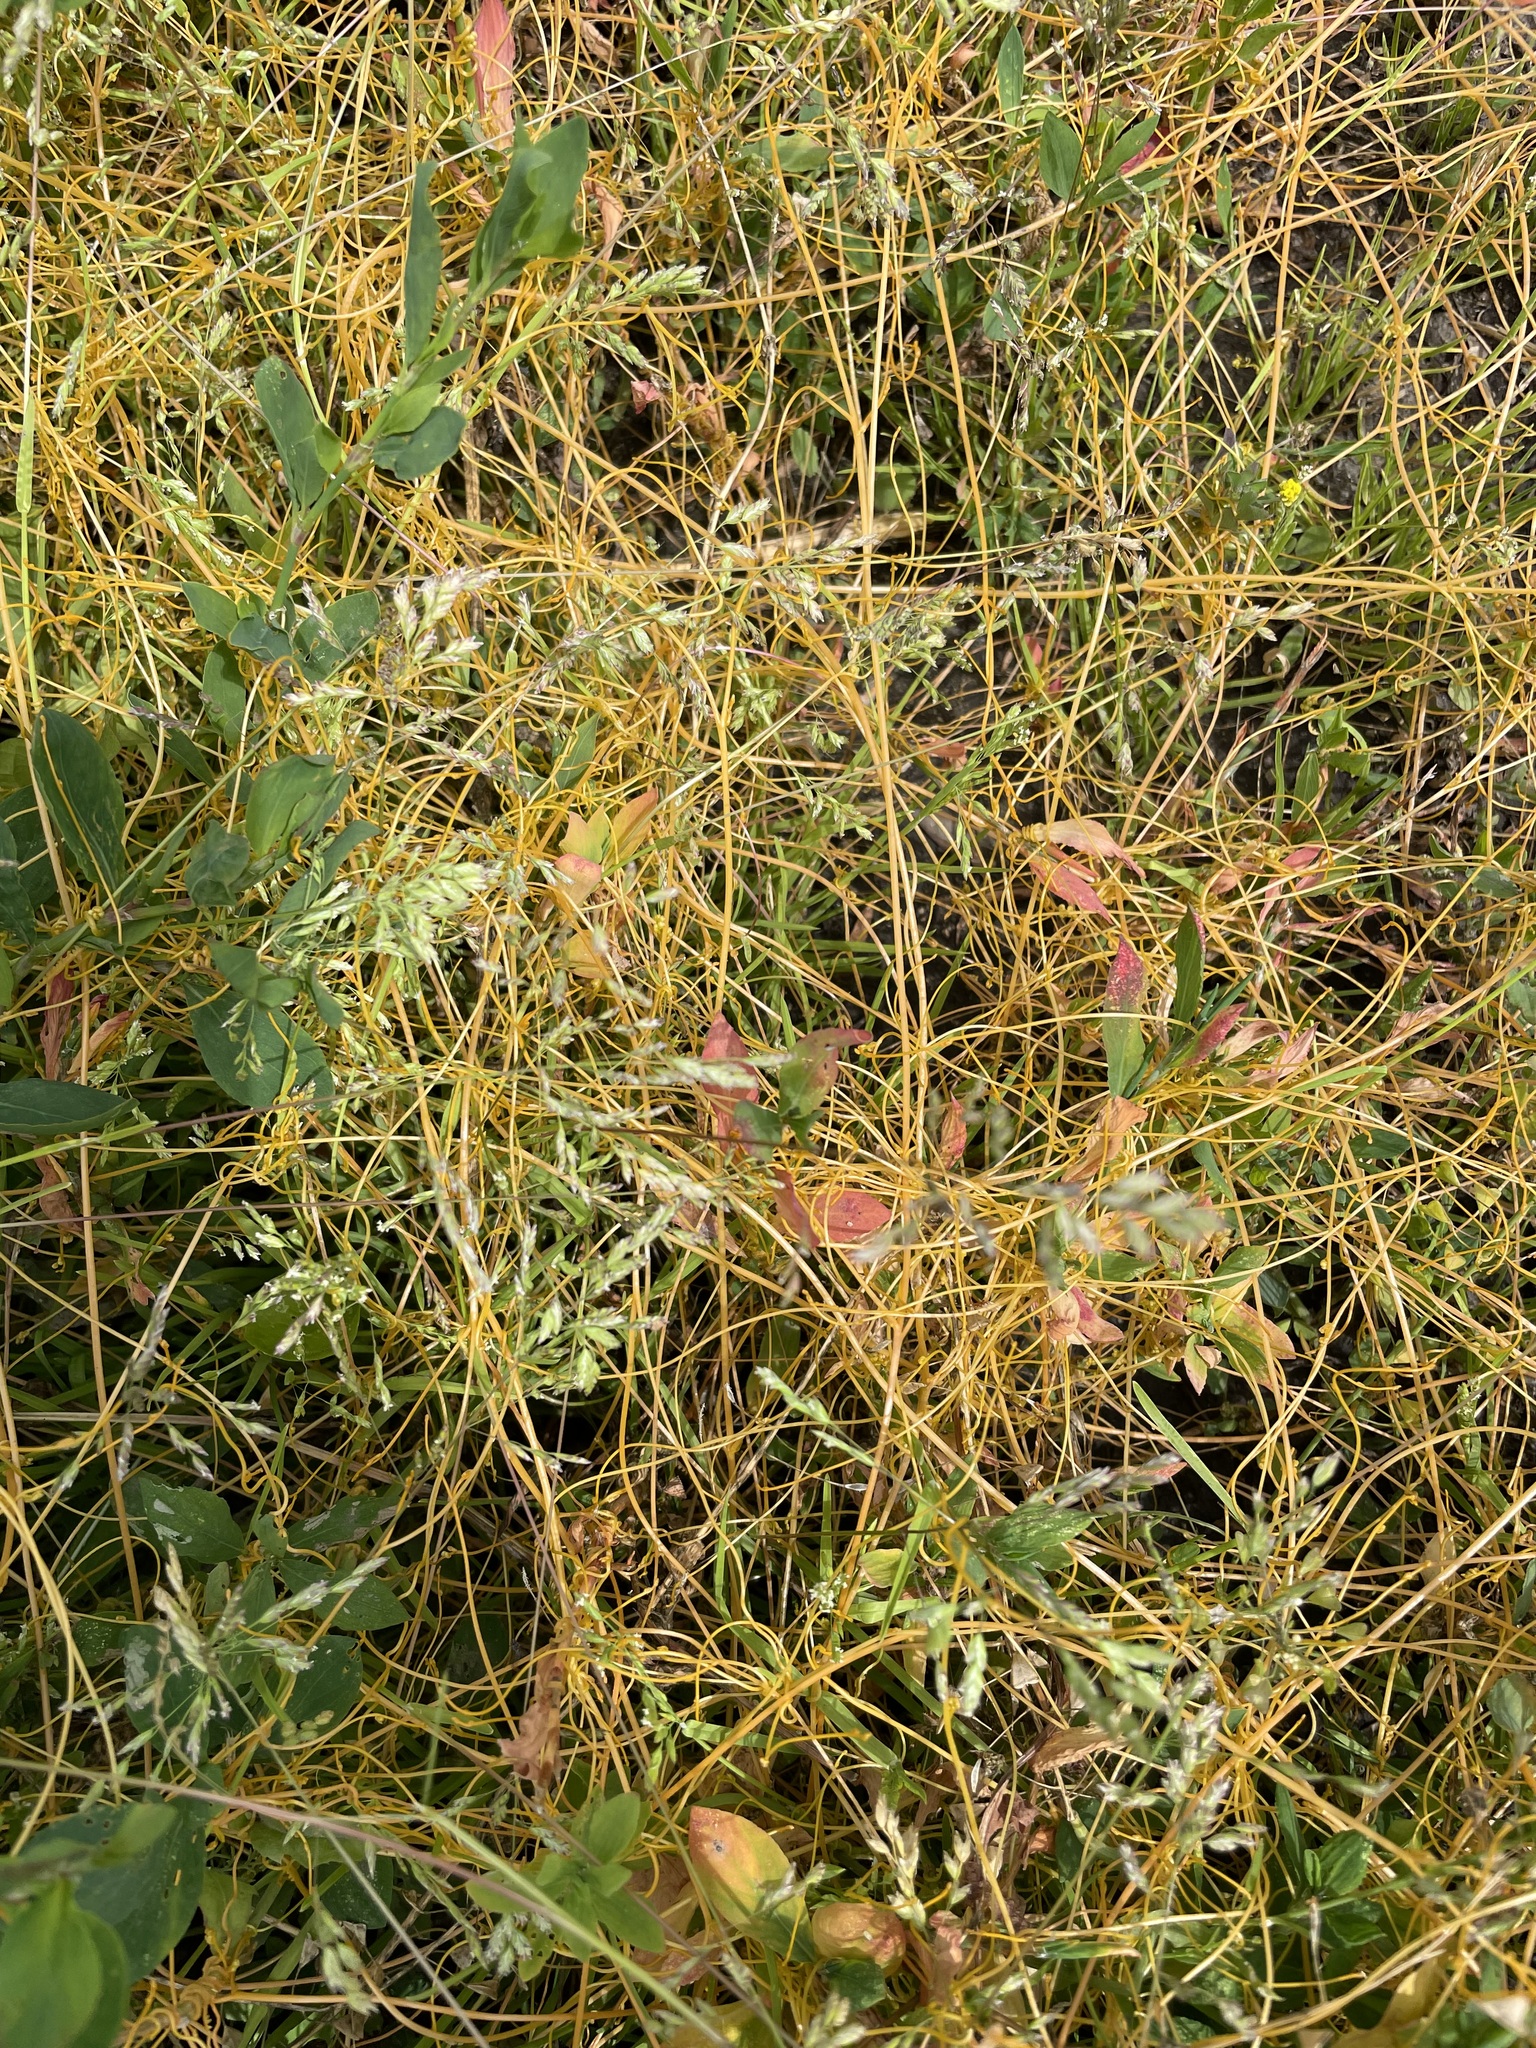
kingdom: Plantae
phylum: Tracheophyta
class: Magnoliopsida
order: Solanales
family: Convolvulaceae
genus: Cuscuta
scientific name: Cuscuta campestris
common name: Yellow dodder
